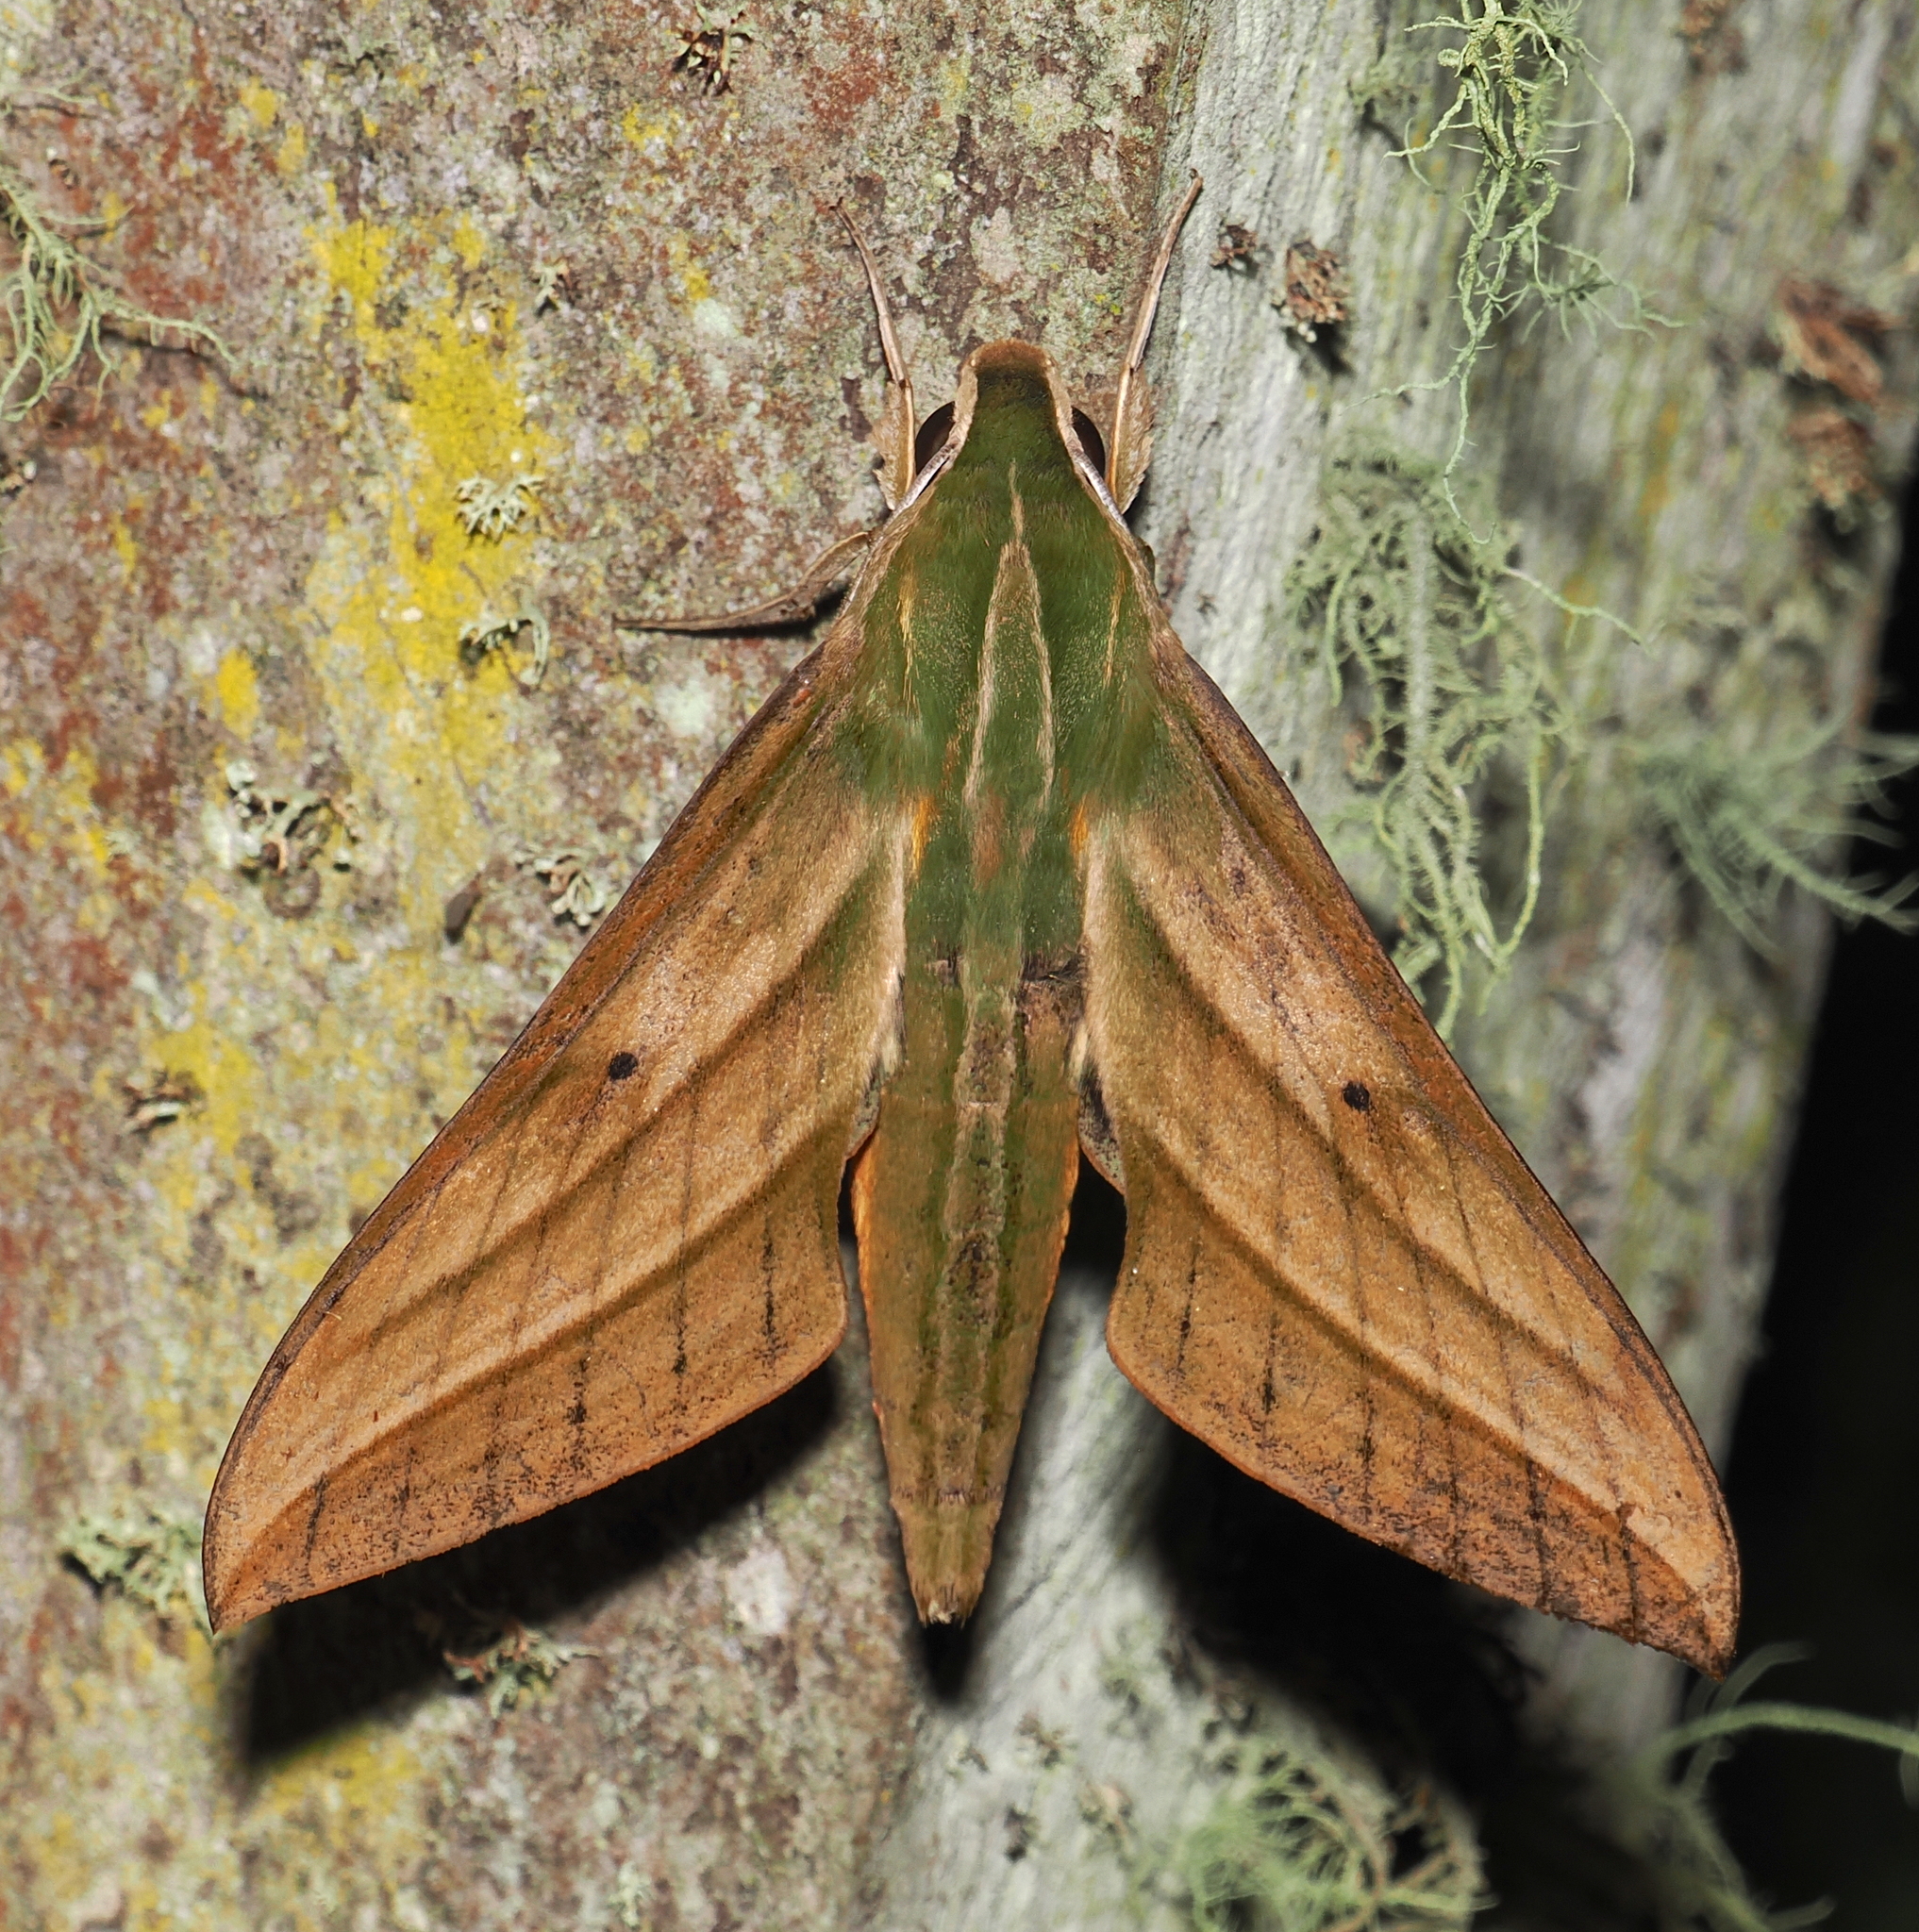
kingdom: Animalia
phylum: Arthropoda
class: Insecta
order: Lepidoptera
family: Sphingidae
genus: Xylophanes
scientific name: Xylophanes crotonis
